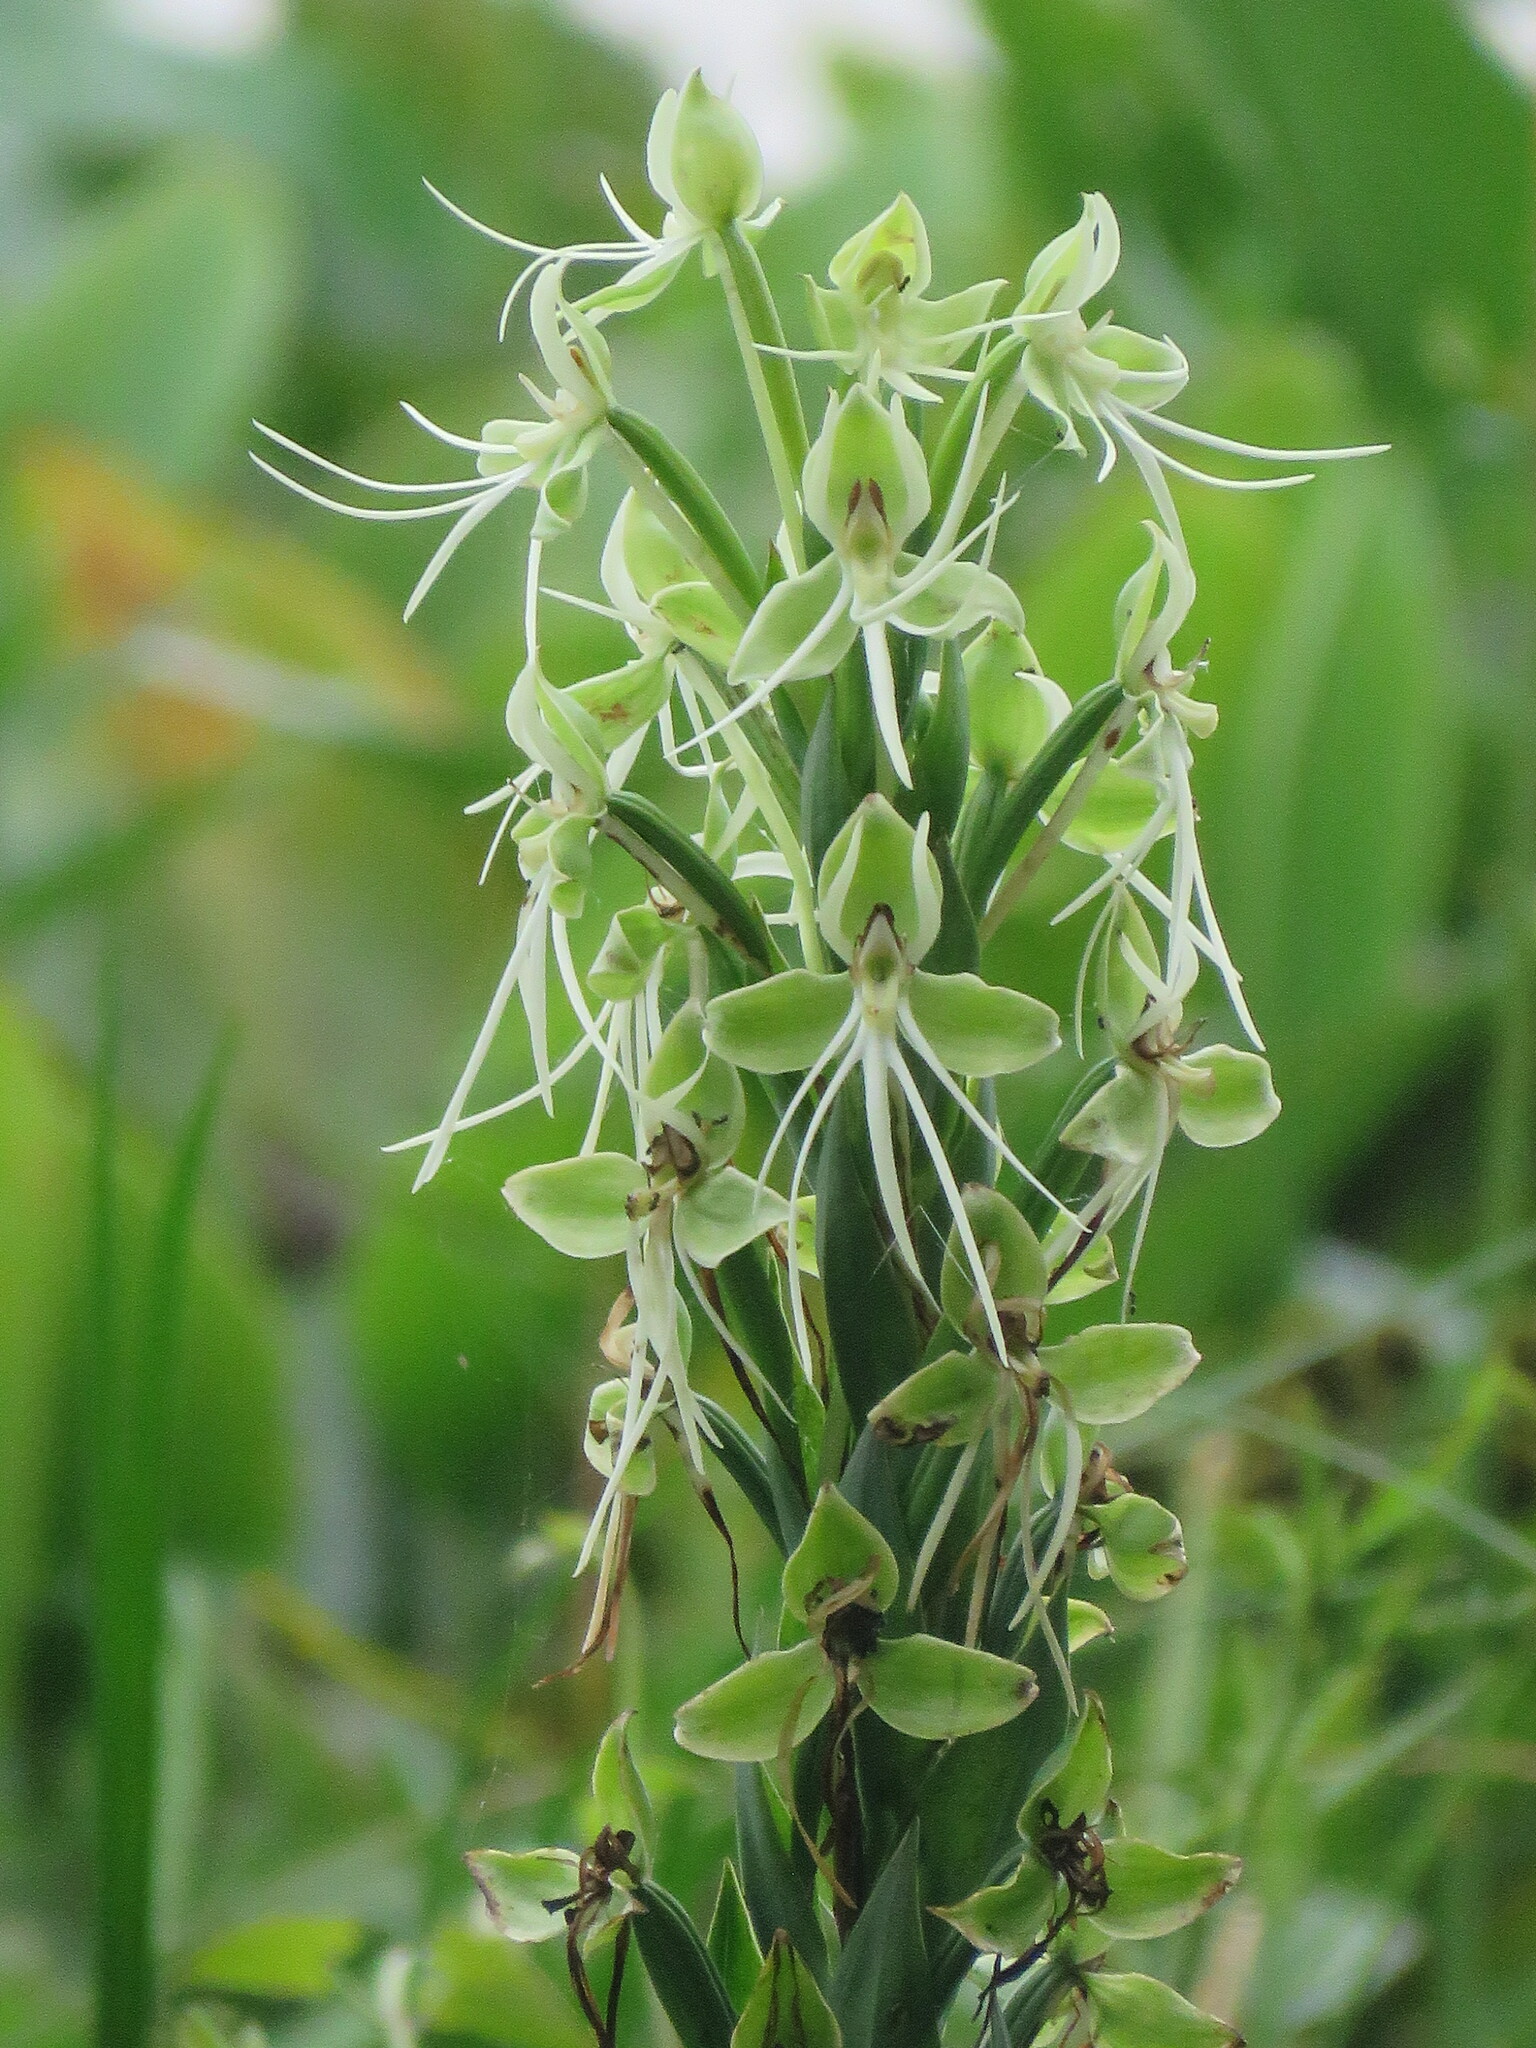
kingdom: Plantae
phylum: Tracheophyta
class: Liliopsida
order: Asparagales
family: Orchidaceae
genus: Habenaria
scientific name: Habenaria melvillei
